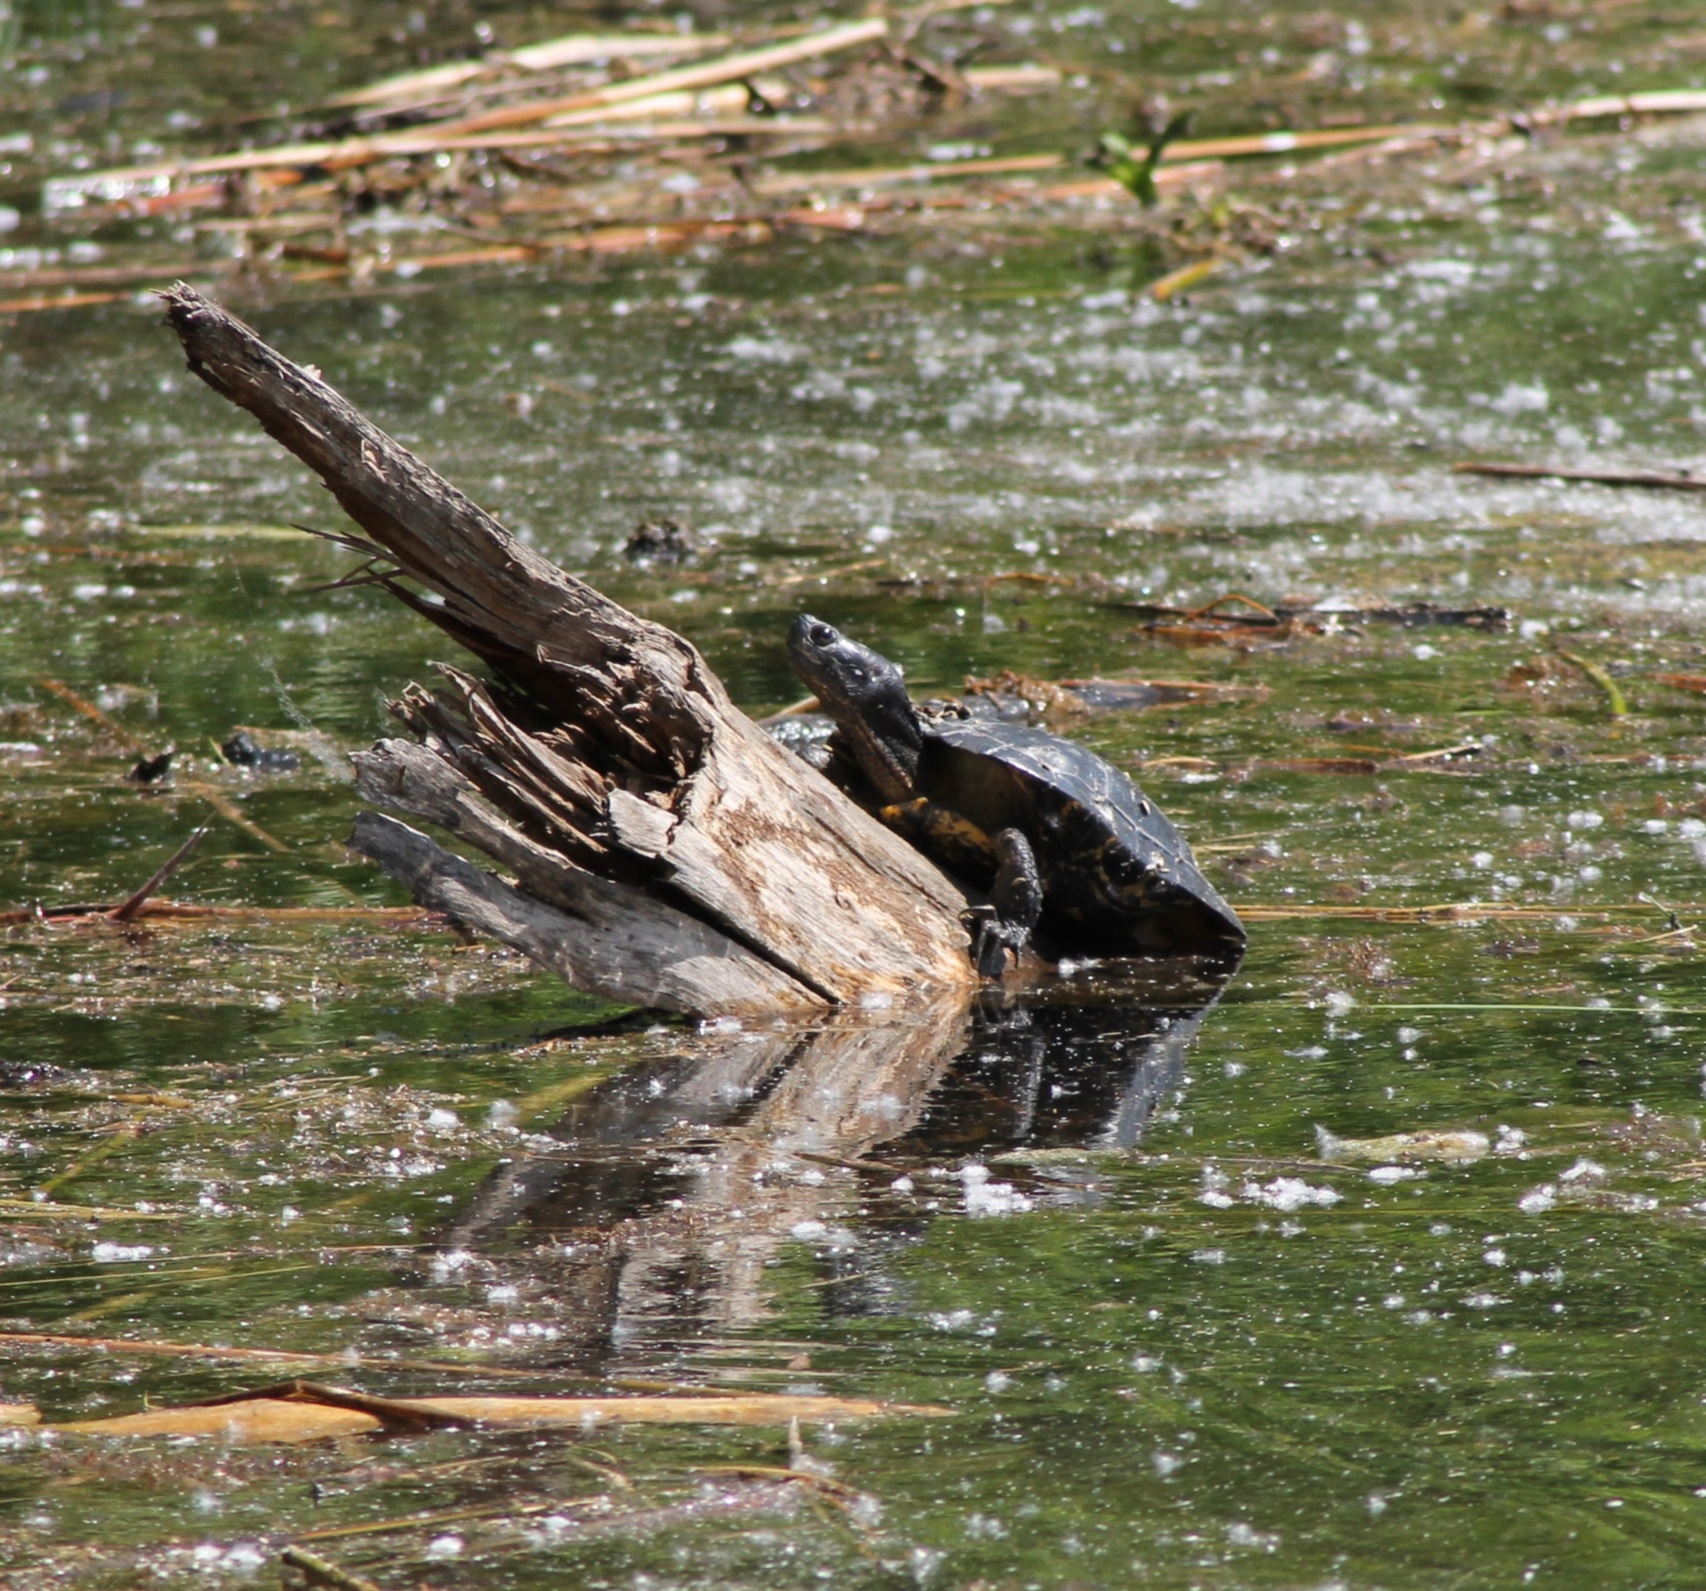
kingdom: Animalia
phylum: Chordata
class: Testudines
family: Emydidae
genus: Trachemys
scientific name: Trachemys scripta
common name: Slider
